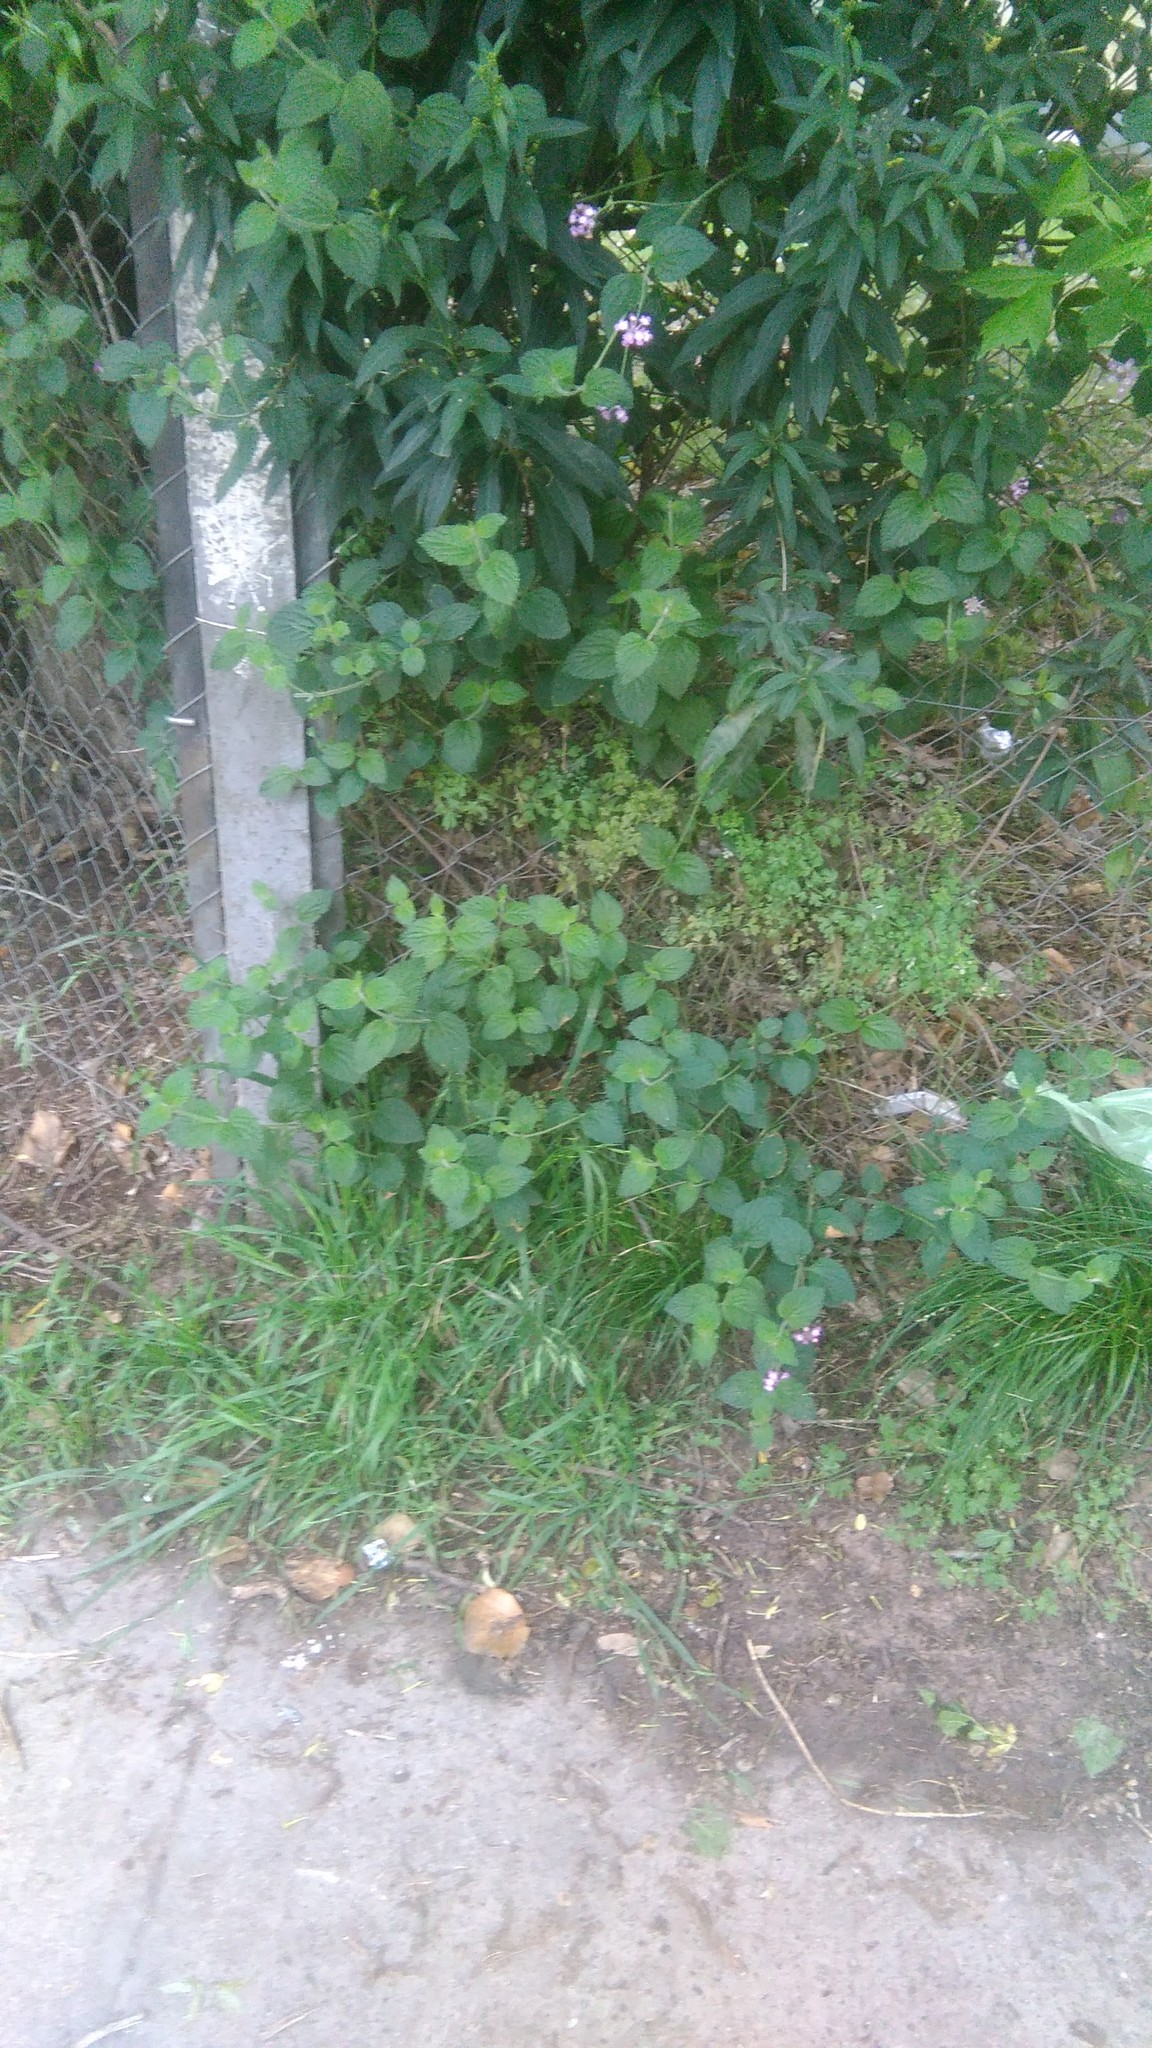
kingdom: Plantae
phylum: Tracheophyta
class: Magnoliopsida
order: Lamiales
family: Verbenaceae
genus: Lantana
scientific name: Lantana megapotamica
